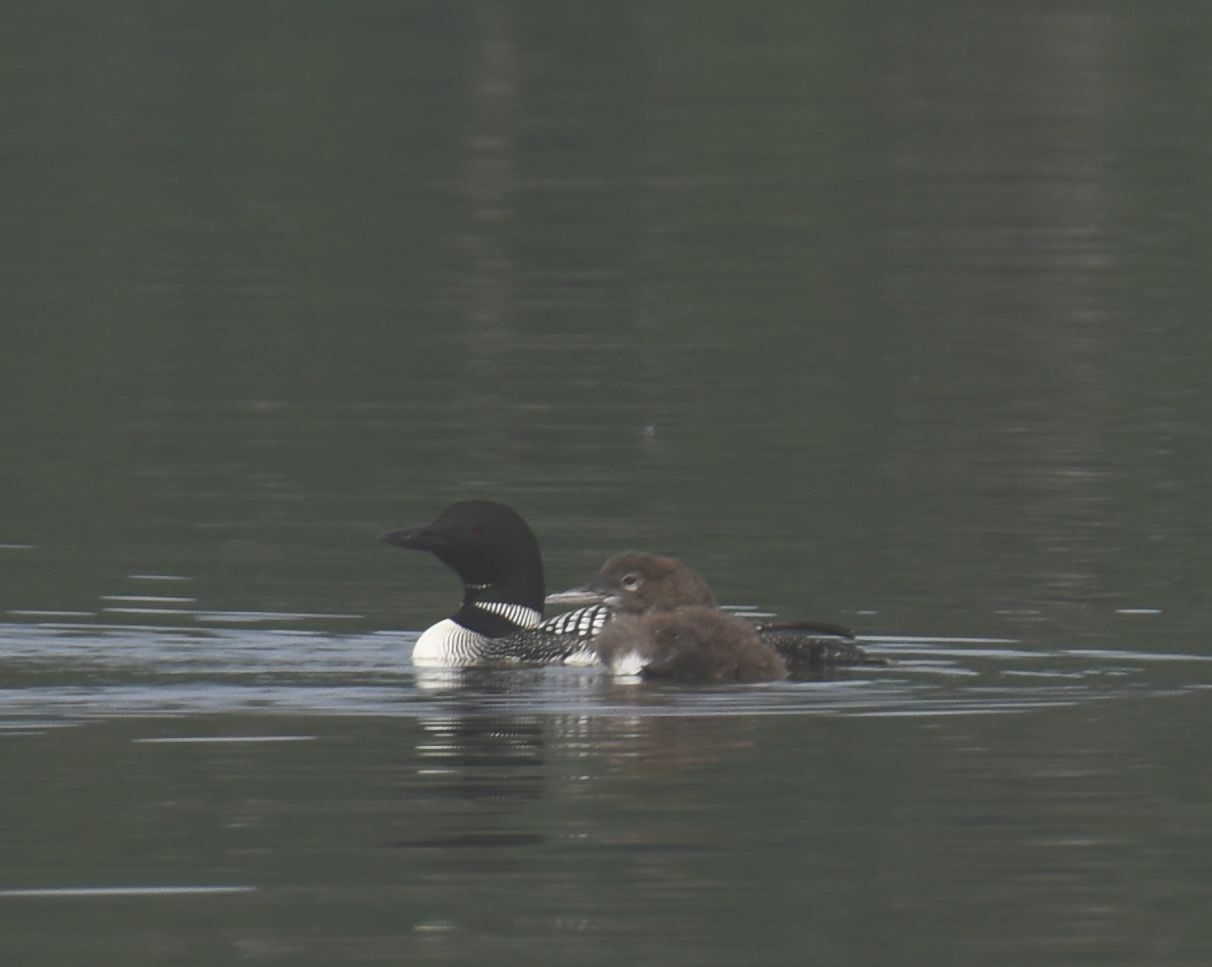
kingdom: Animalia
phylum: Chordata
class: Aves
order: Gaviiformes
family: Gaviidae
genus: Gavia
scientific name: Gavia immer
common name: Common loon
